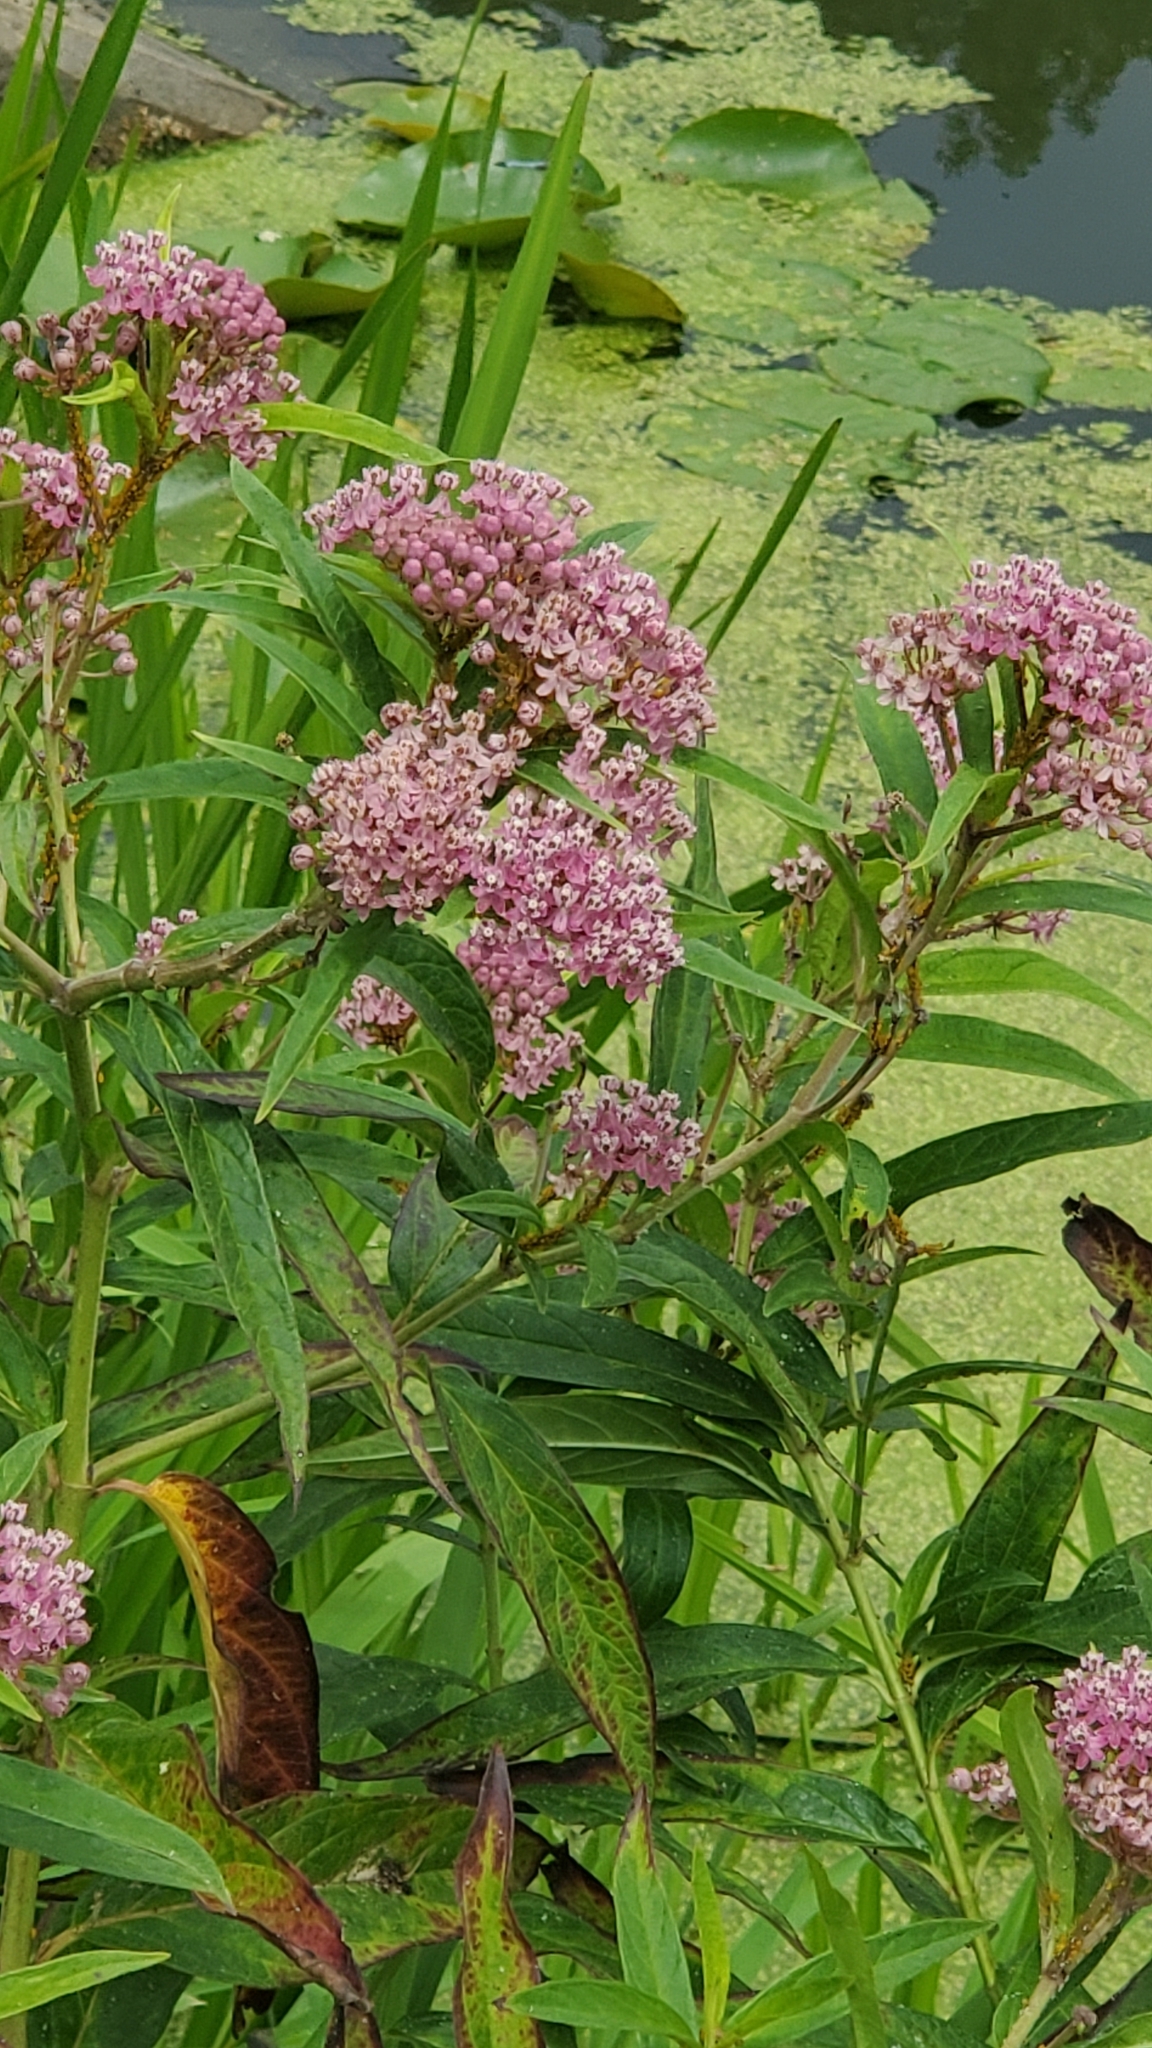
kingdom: Plantae
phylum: Tracheophyta
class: Magnoliopsida
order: Gentianales
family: Apocynaceae
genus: Asclepias
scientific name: Asclepias incarnata
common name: Swamp milkweed
